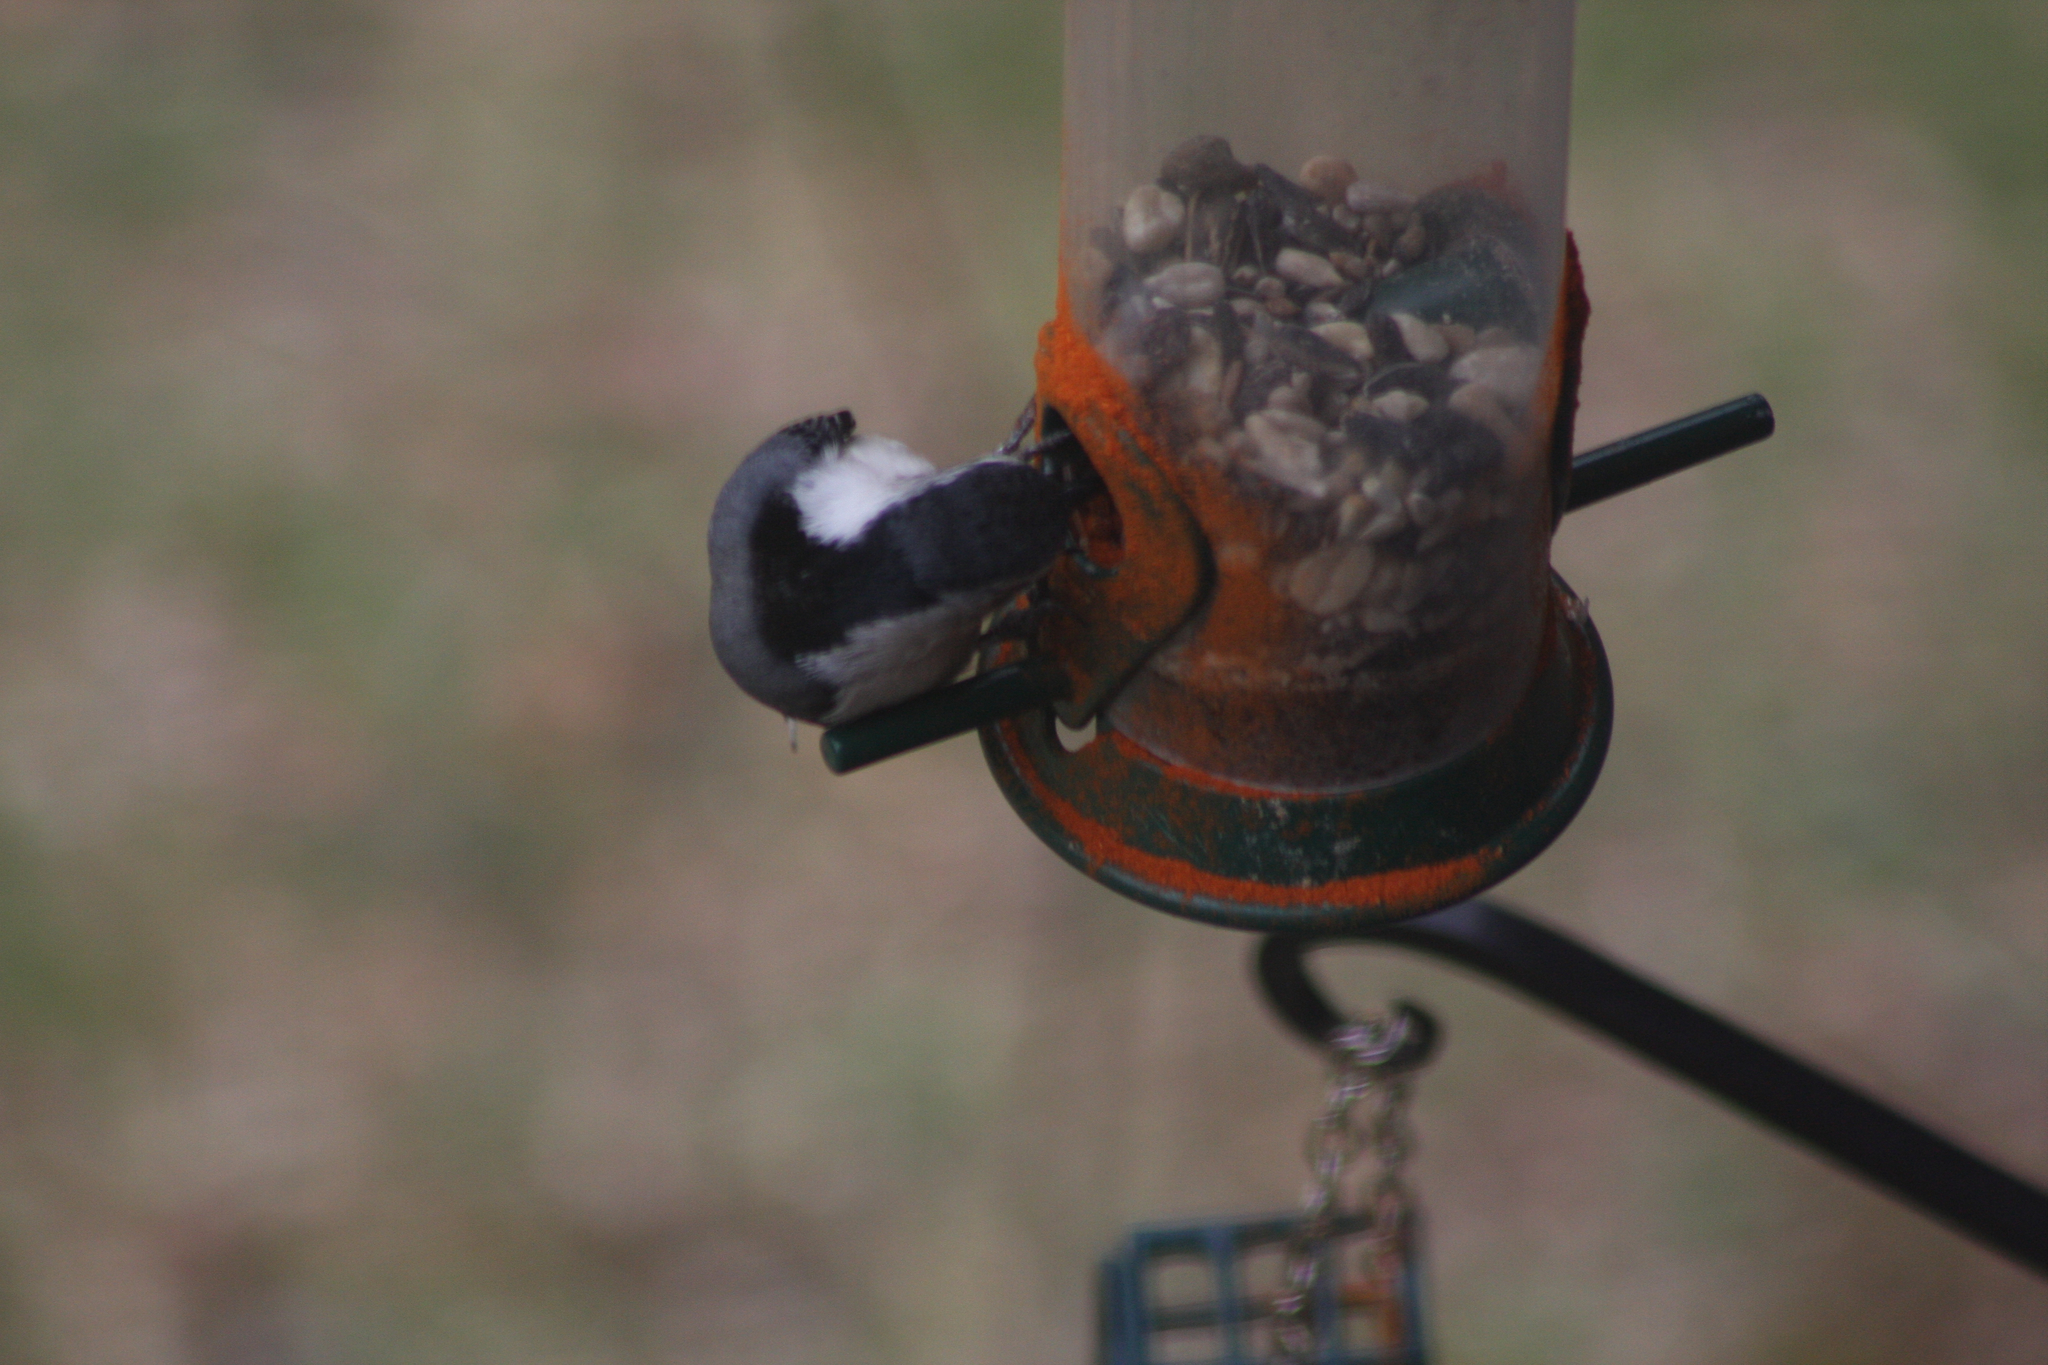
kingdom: Animalia
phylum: Chordata
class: Aves
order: Passeriformes
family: Sittidae
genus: Sitta
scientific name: Sitta carolinensis
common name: White-breasted nuthatch
